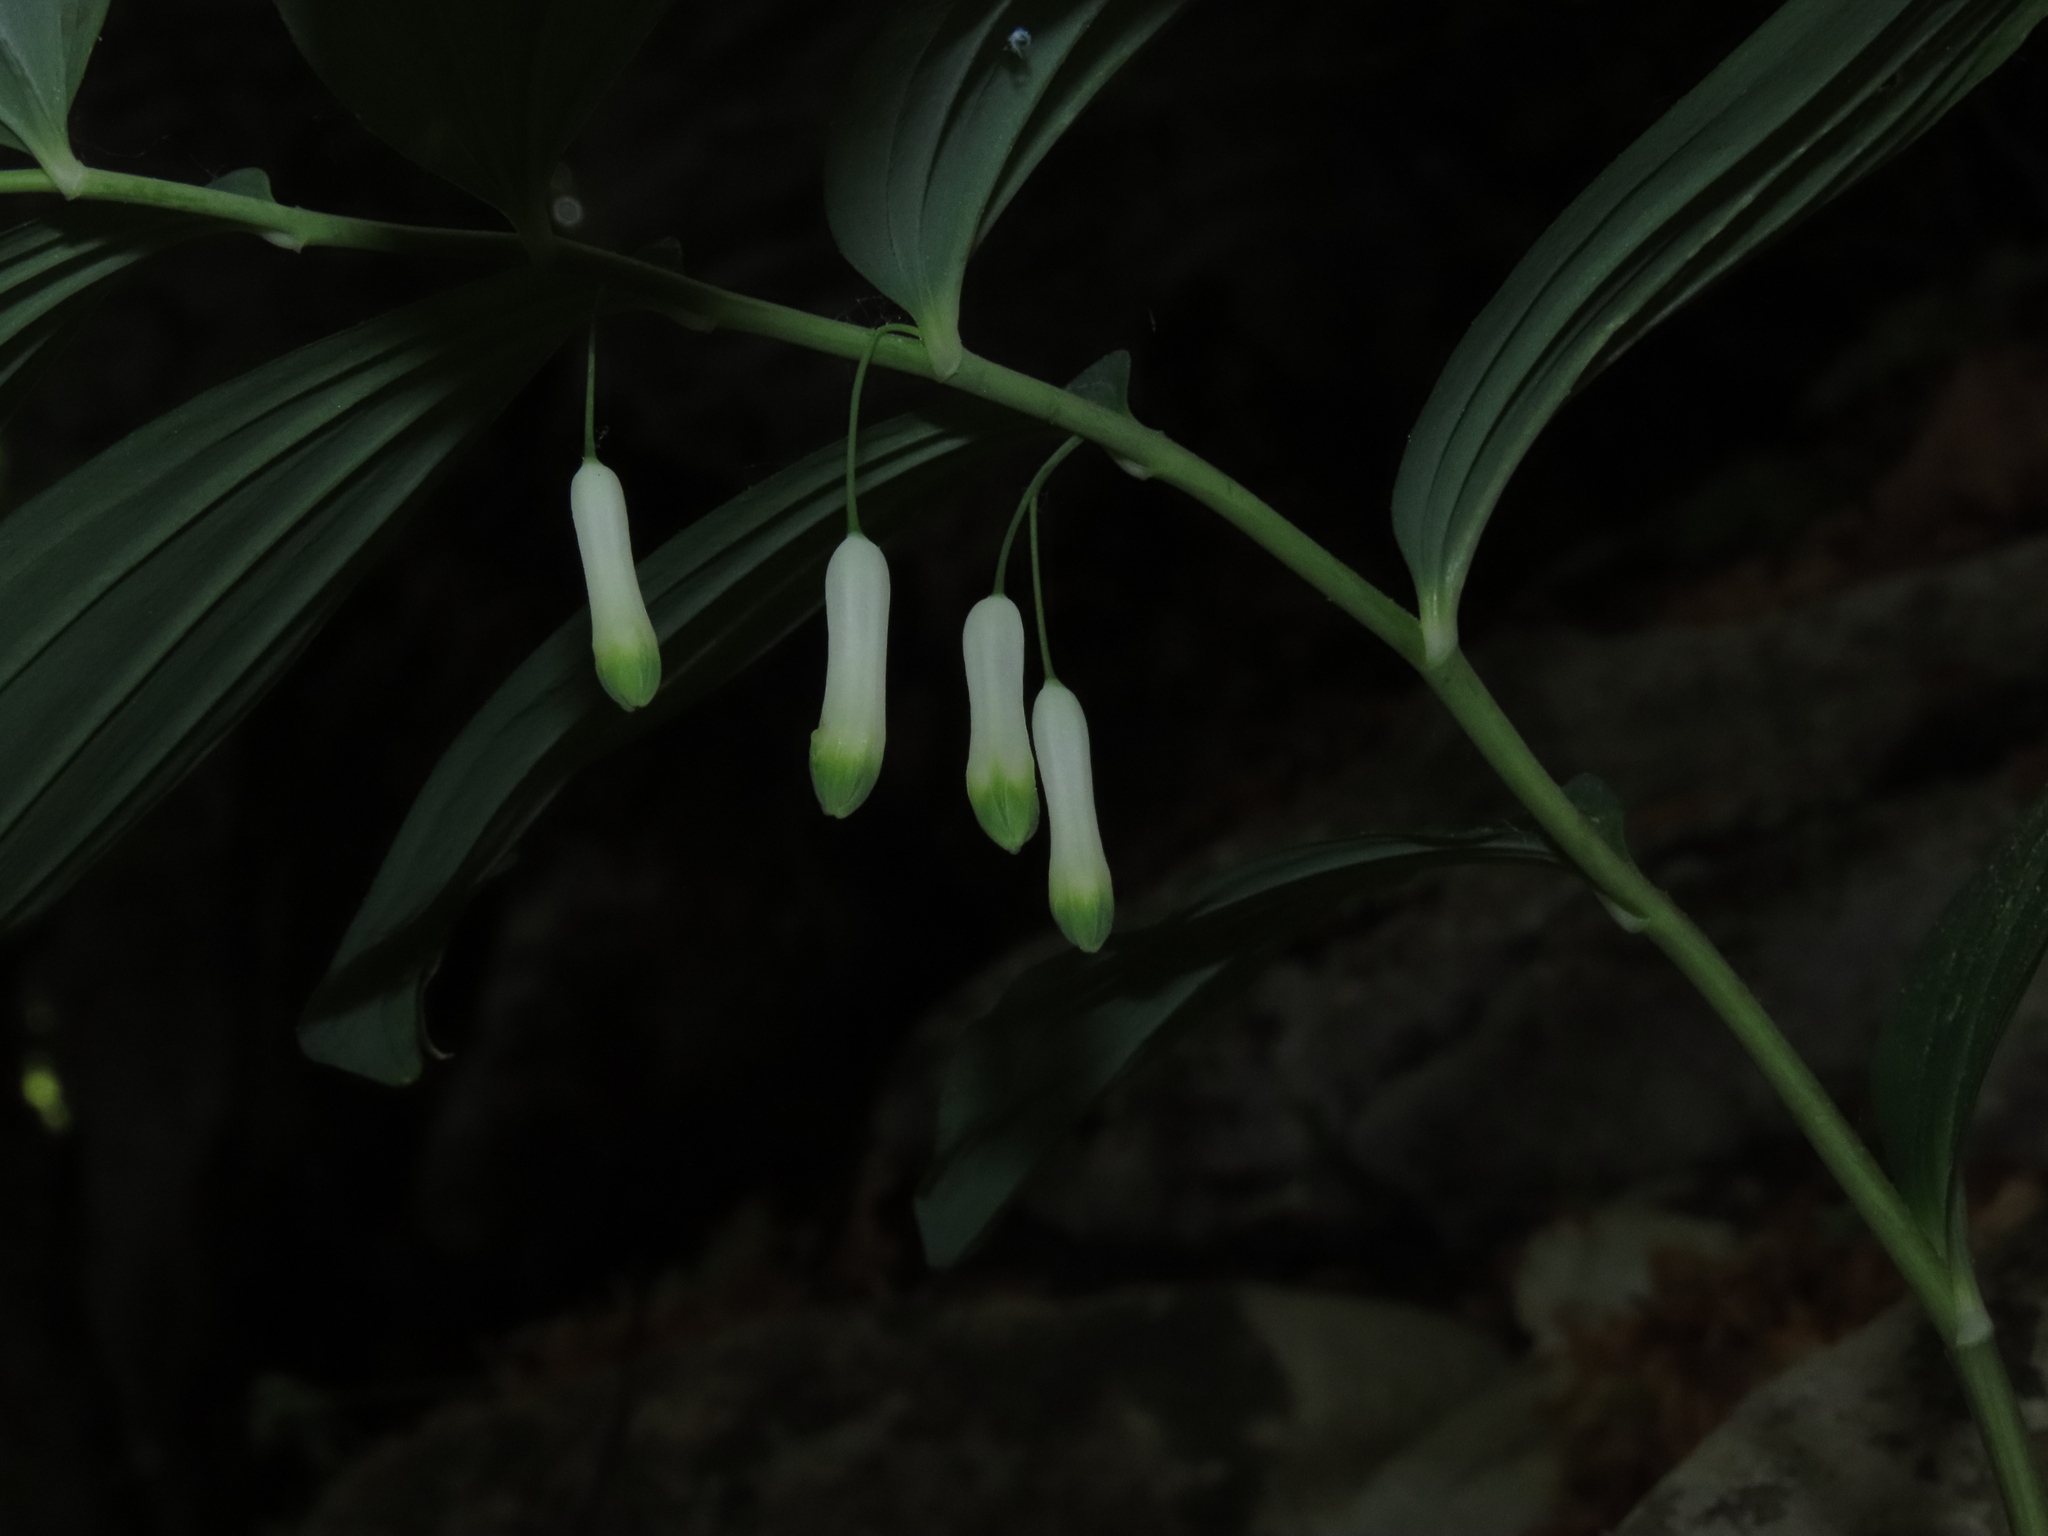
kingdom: Plantae
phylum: Tracheophyta
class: Liliopsida
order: Asparagales
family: Asparagaceae
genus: Polygonatum
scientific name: Polygonatum multiflorum
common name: Solomon's-seal
